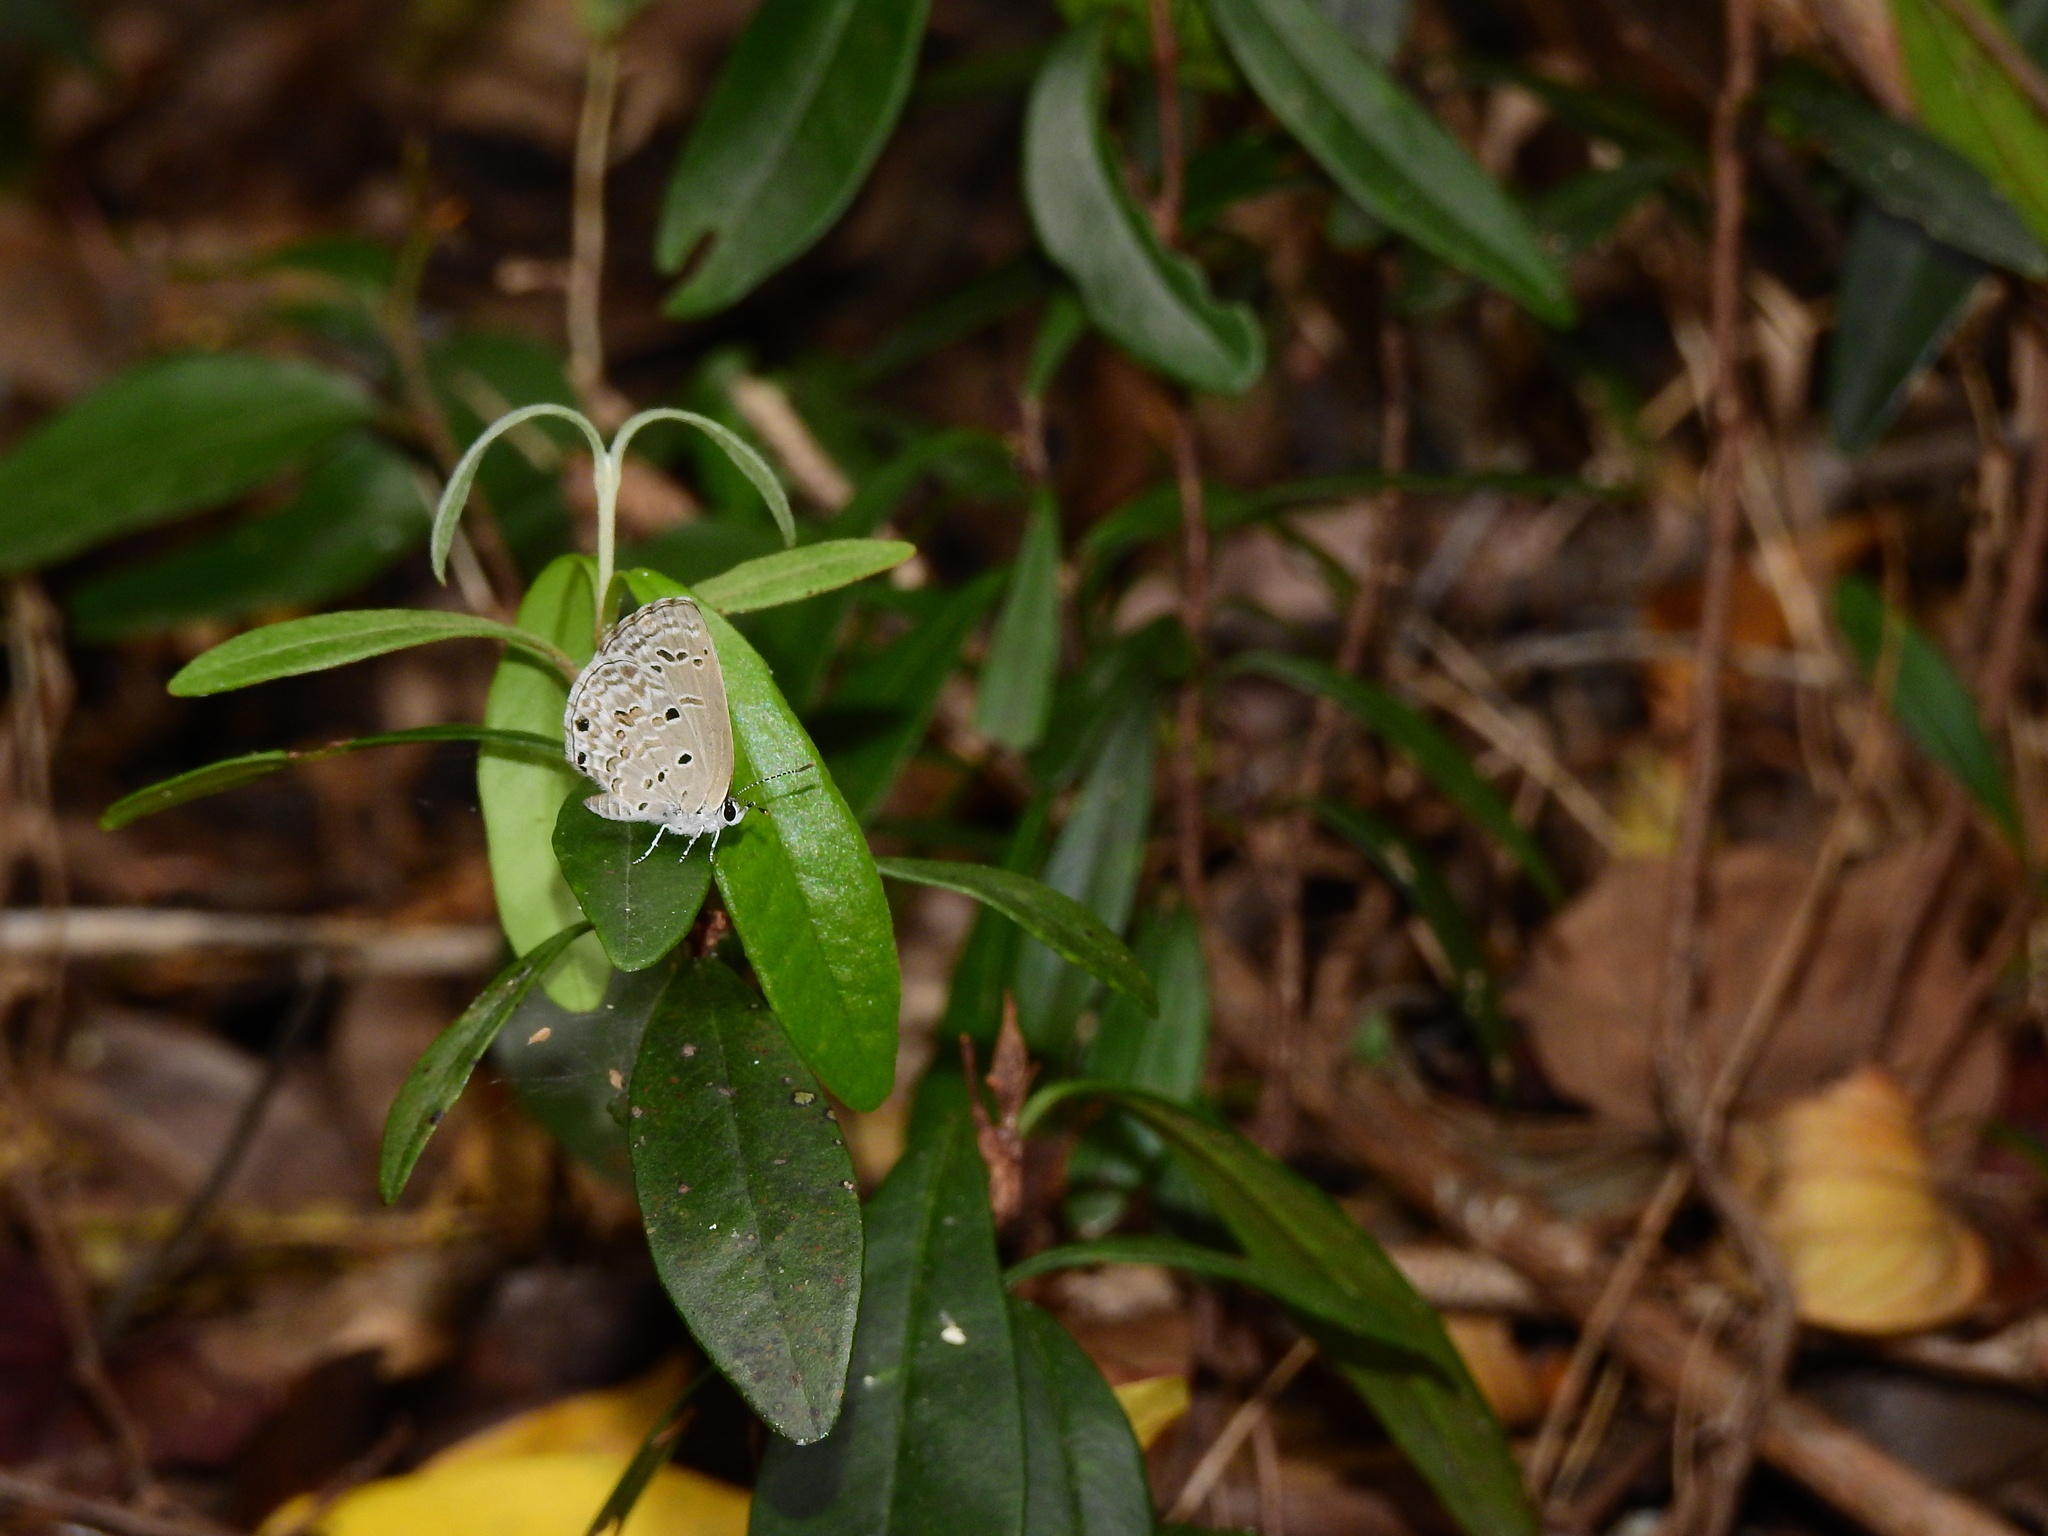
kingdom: Animalia
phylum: Arthropoda
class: Insecta
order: Lepidoptera
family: Lycaenidae
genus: Chilades
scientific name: Chilades laius
